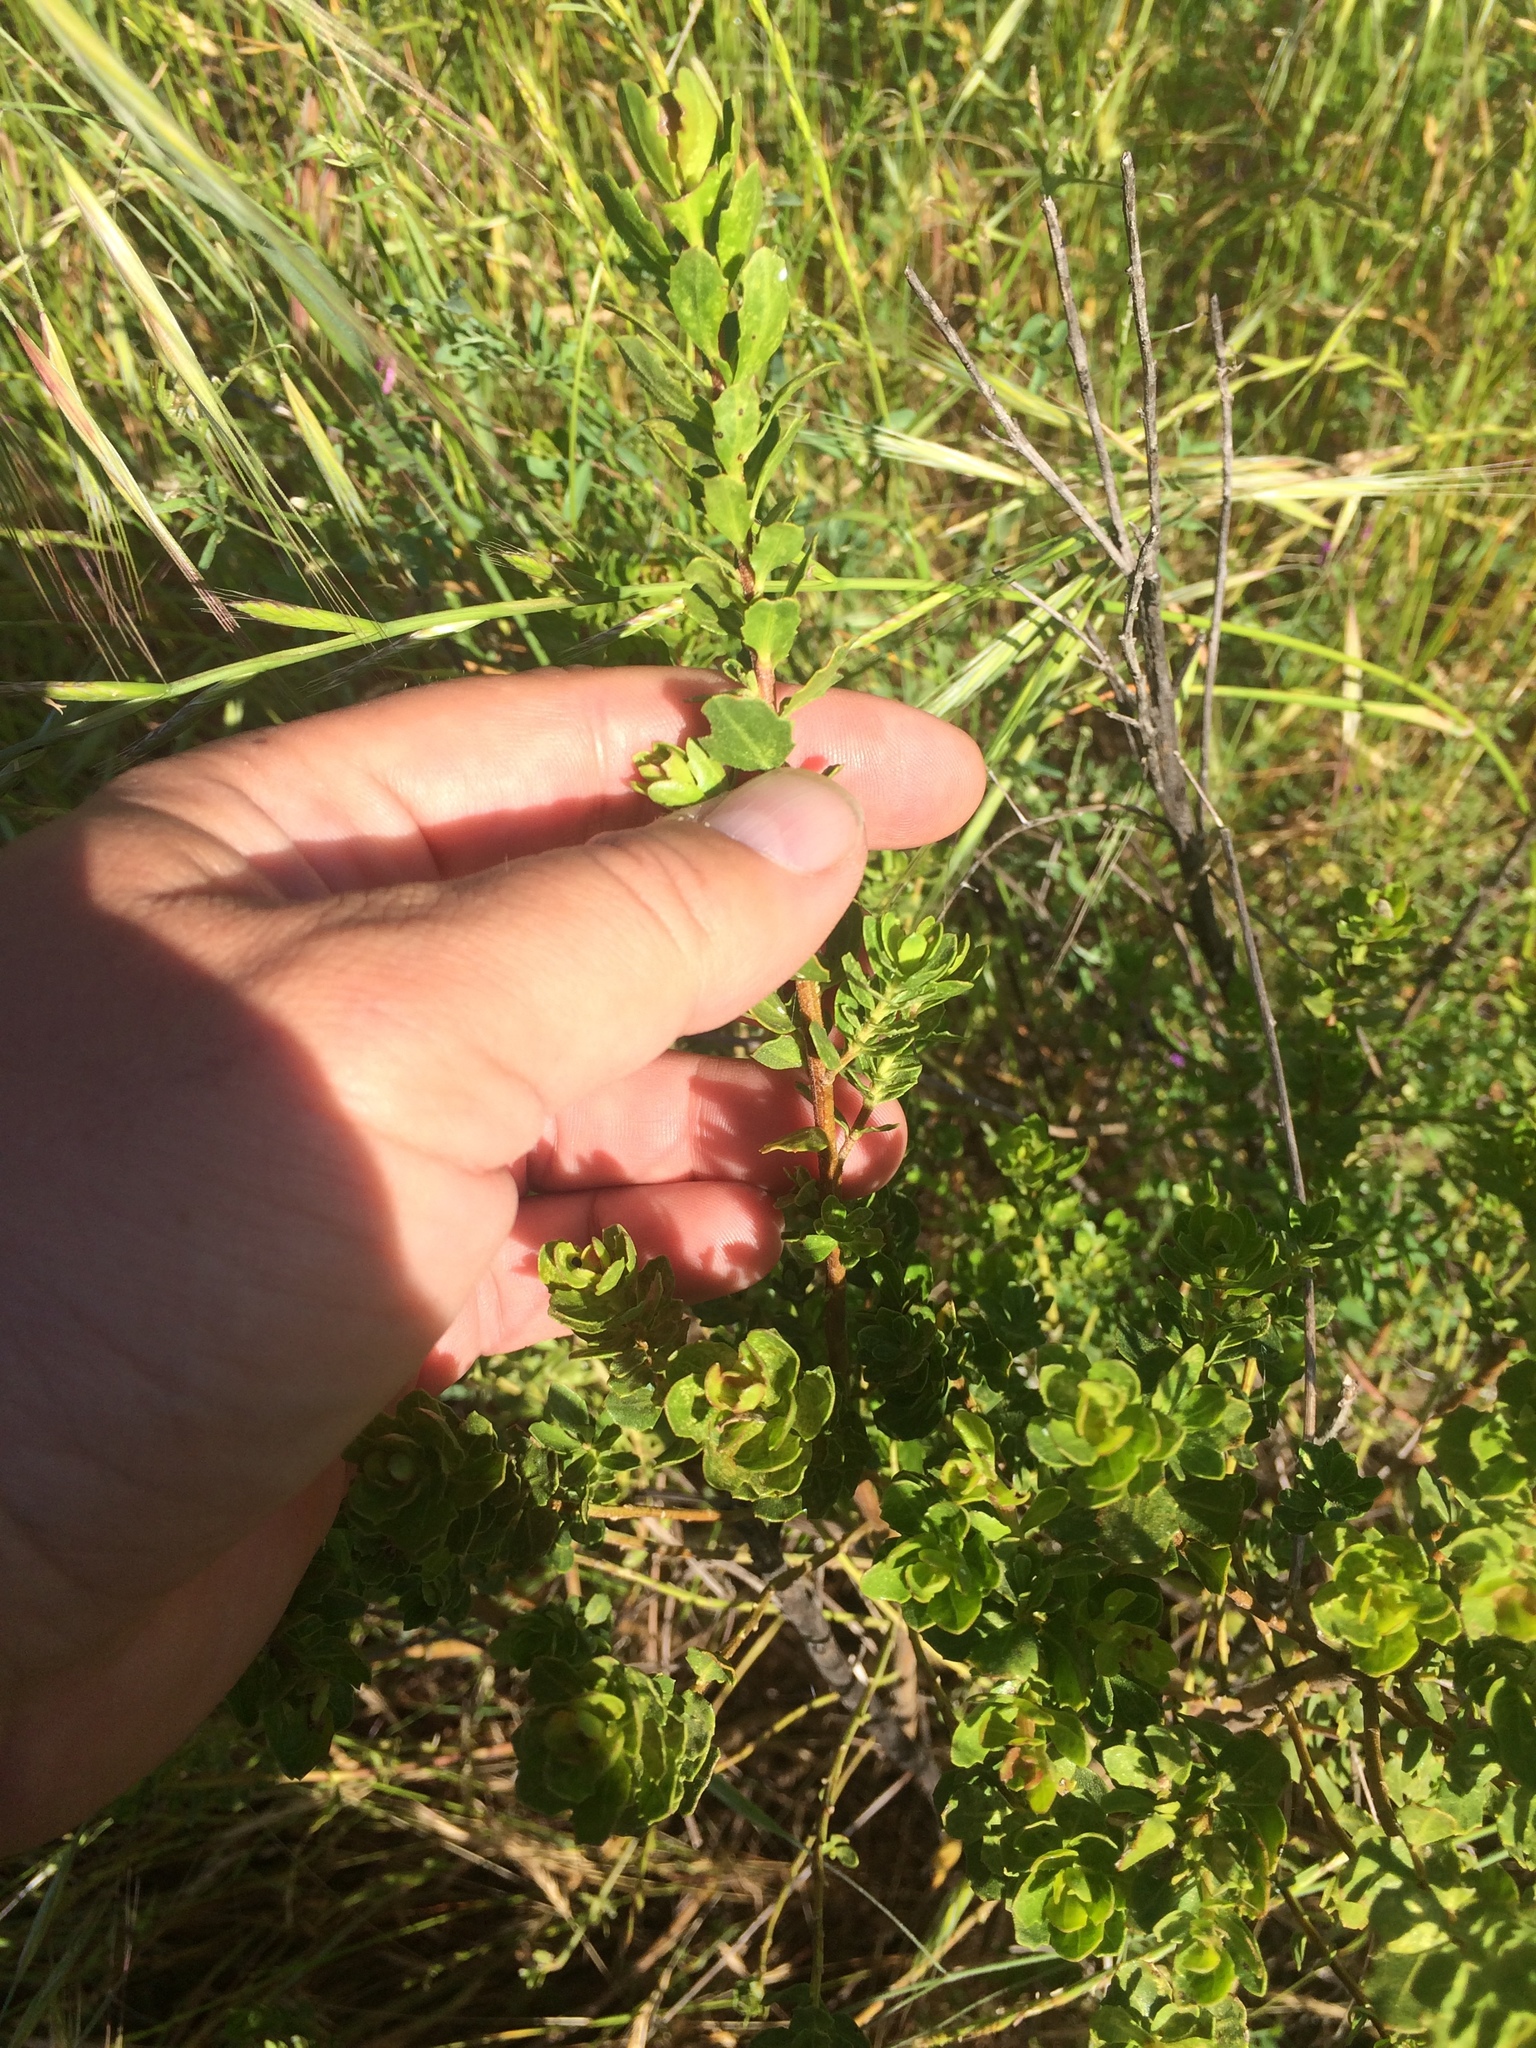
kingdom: Plantae
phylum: Tracheophyta
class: Magnoliopsida
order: Asterales
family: Asteraceae
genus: Baccharis
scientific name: Baccharis pilularis
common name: Coyotebrush
